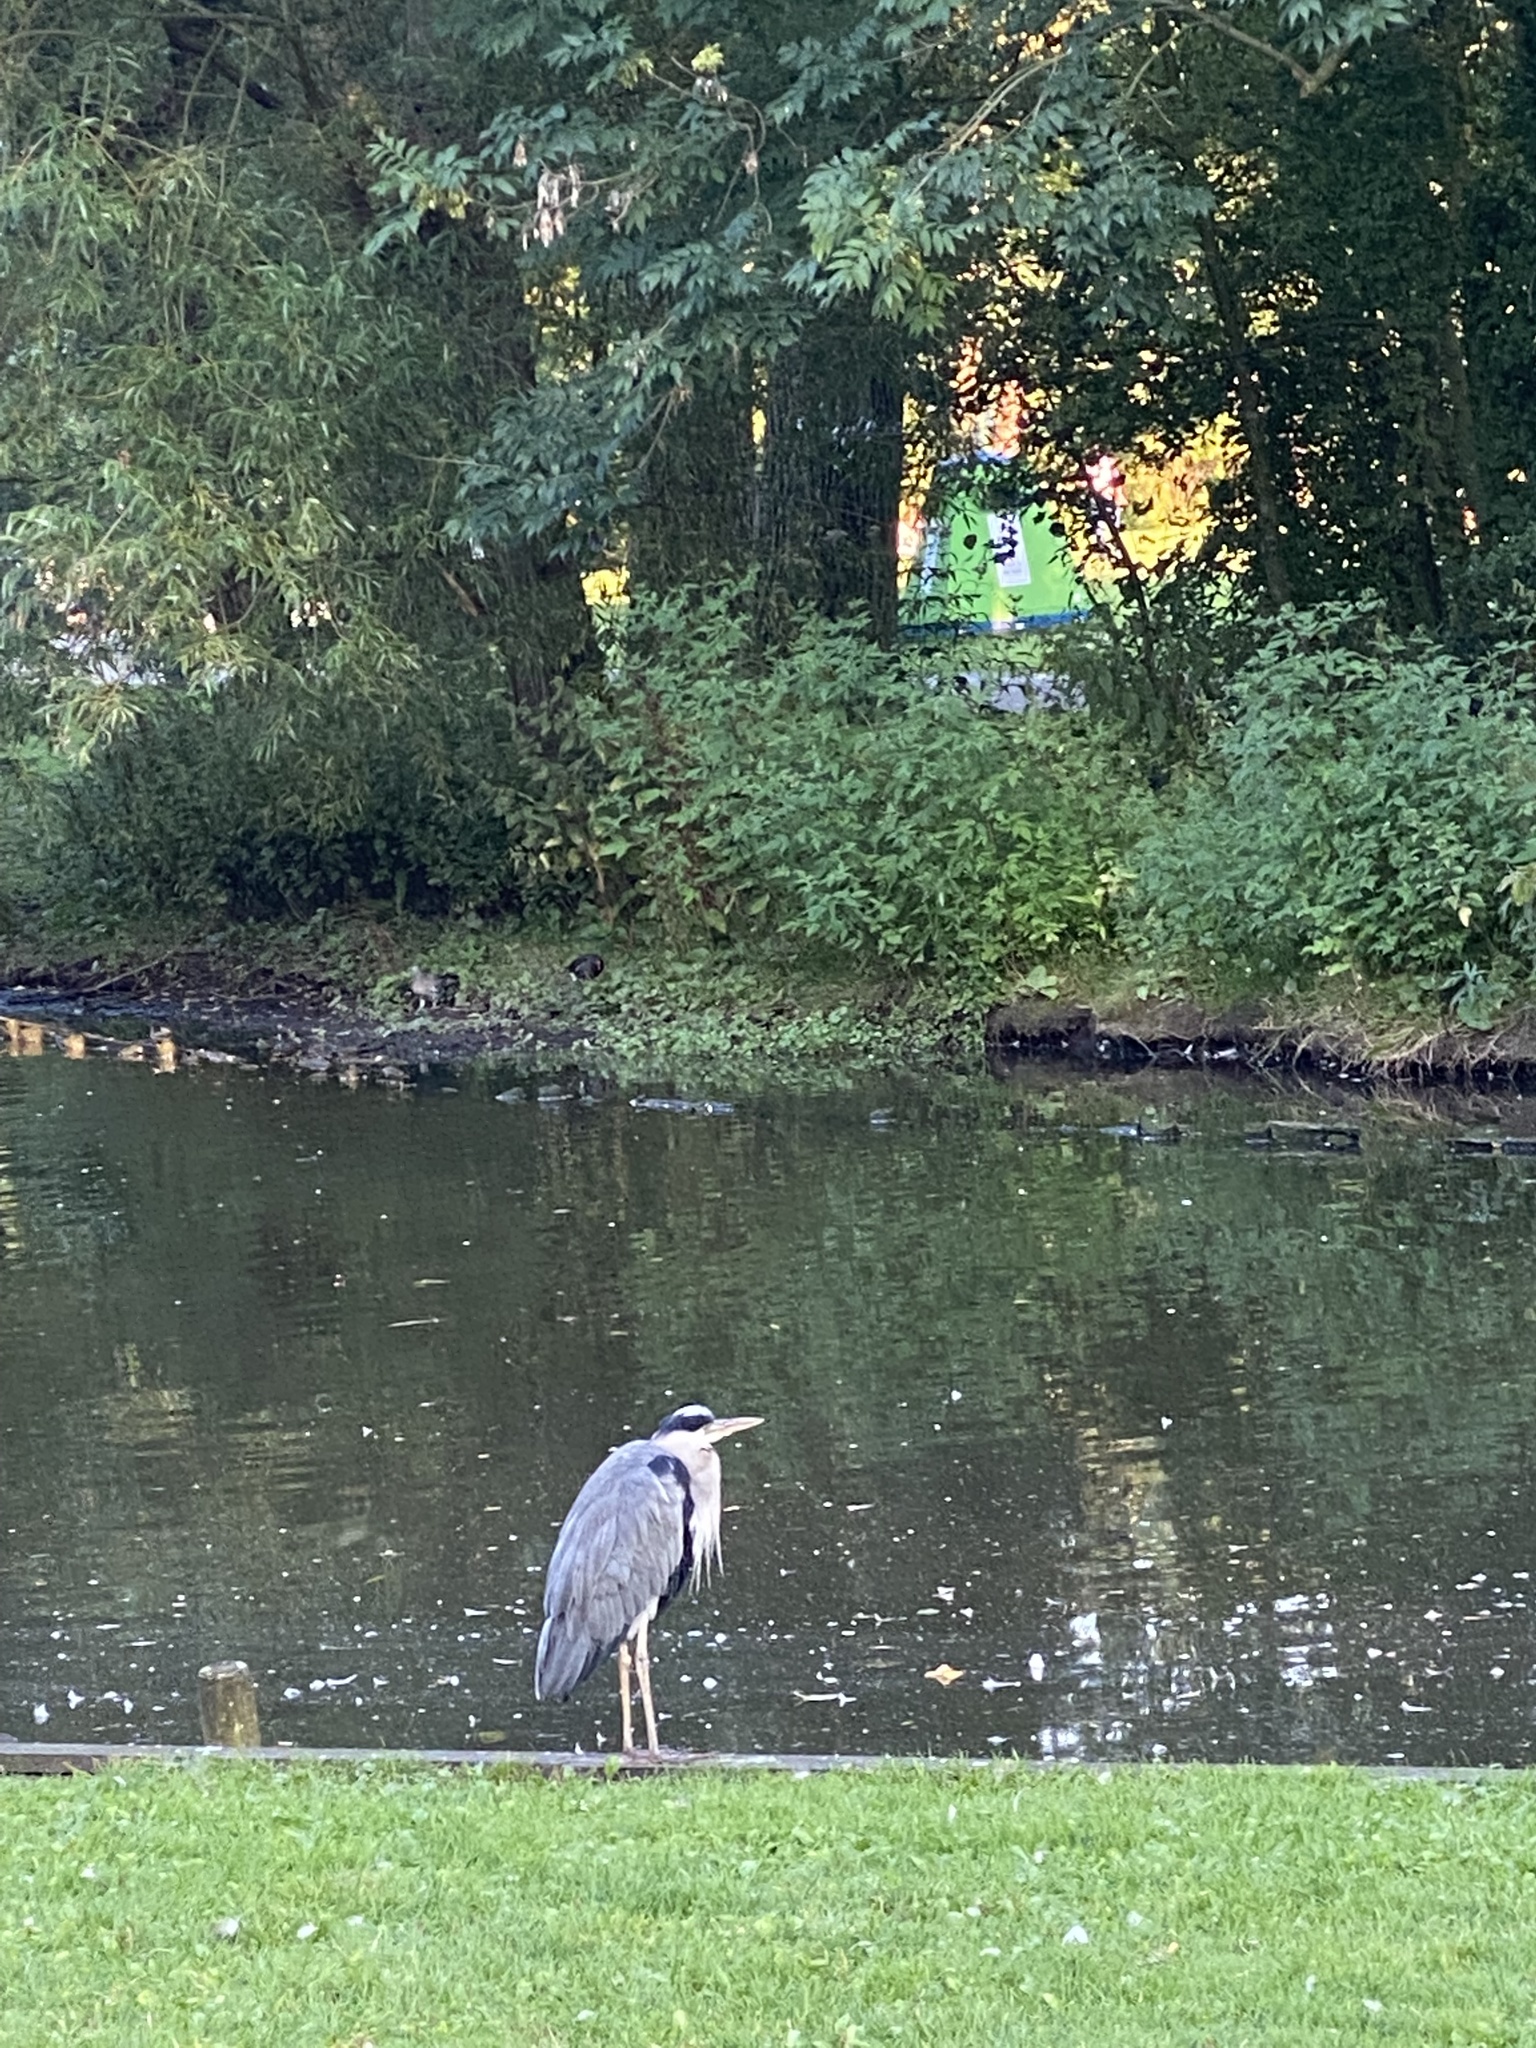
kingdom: Animalia
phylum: Chordata
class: Aves
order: Pelecaniformes
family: Ardeidae
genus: Ardea
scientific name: Ardea cinerea
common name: Grey heron
